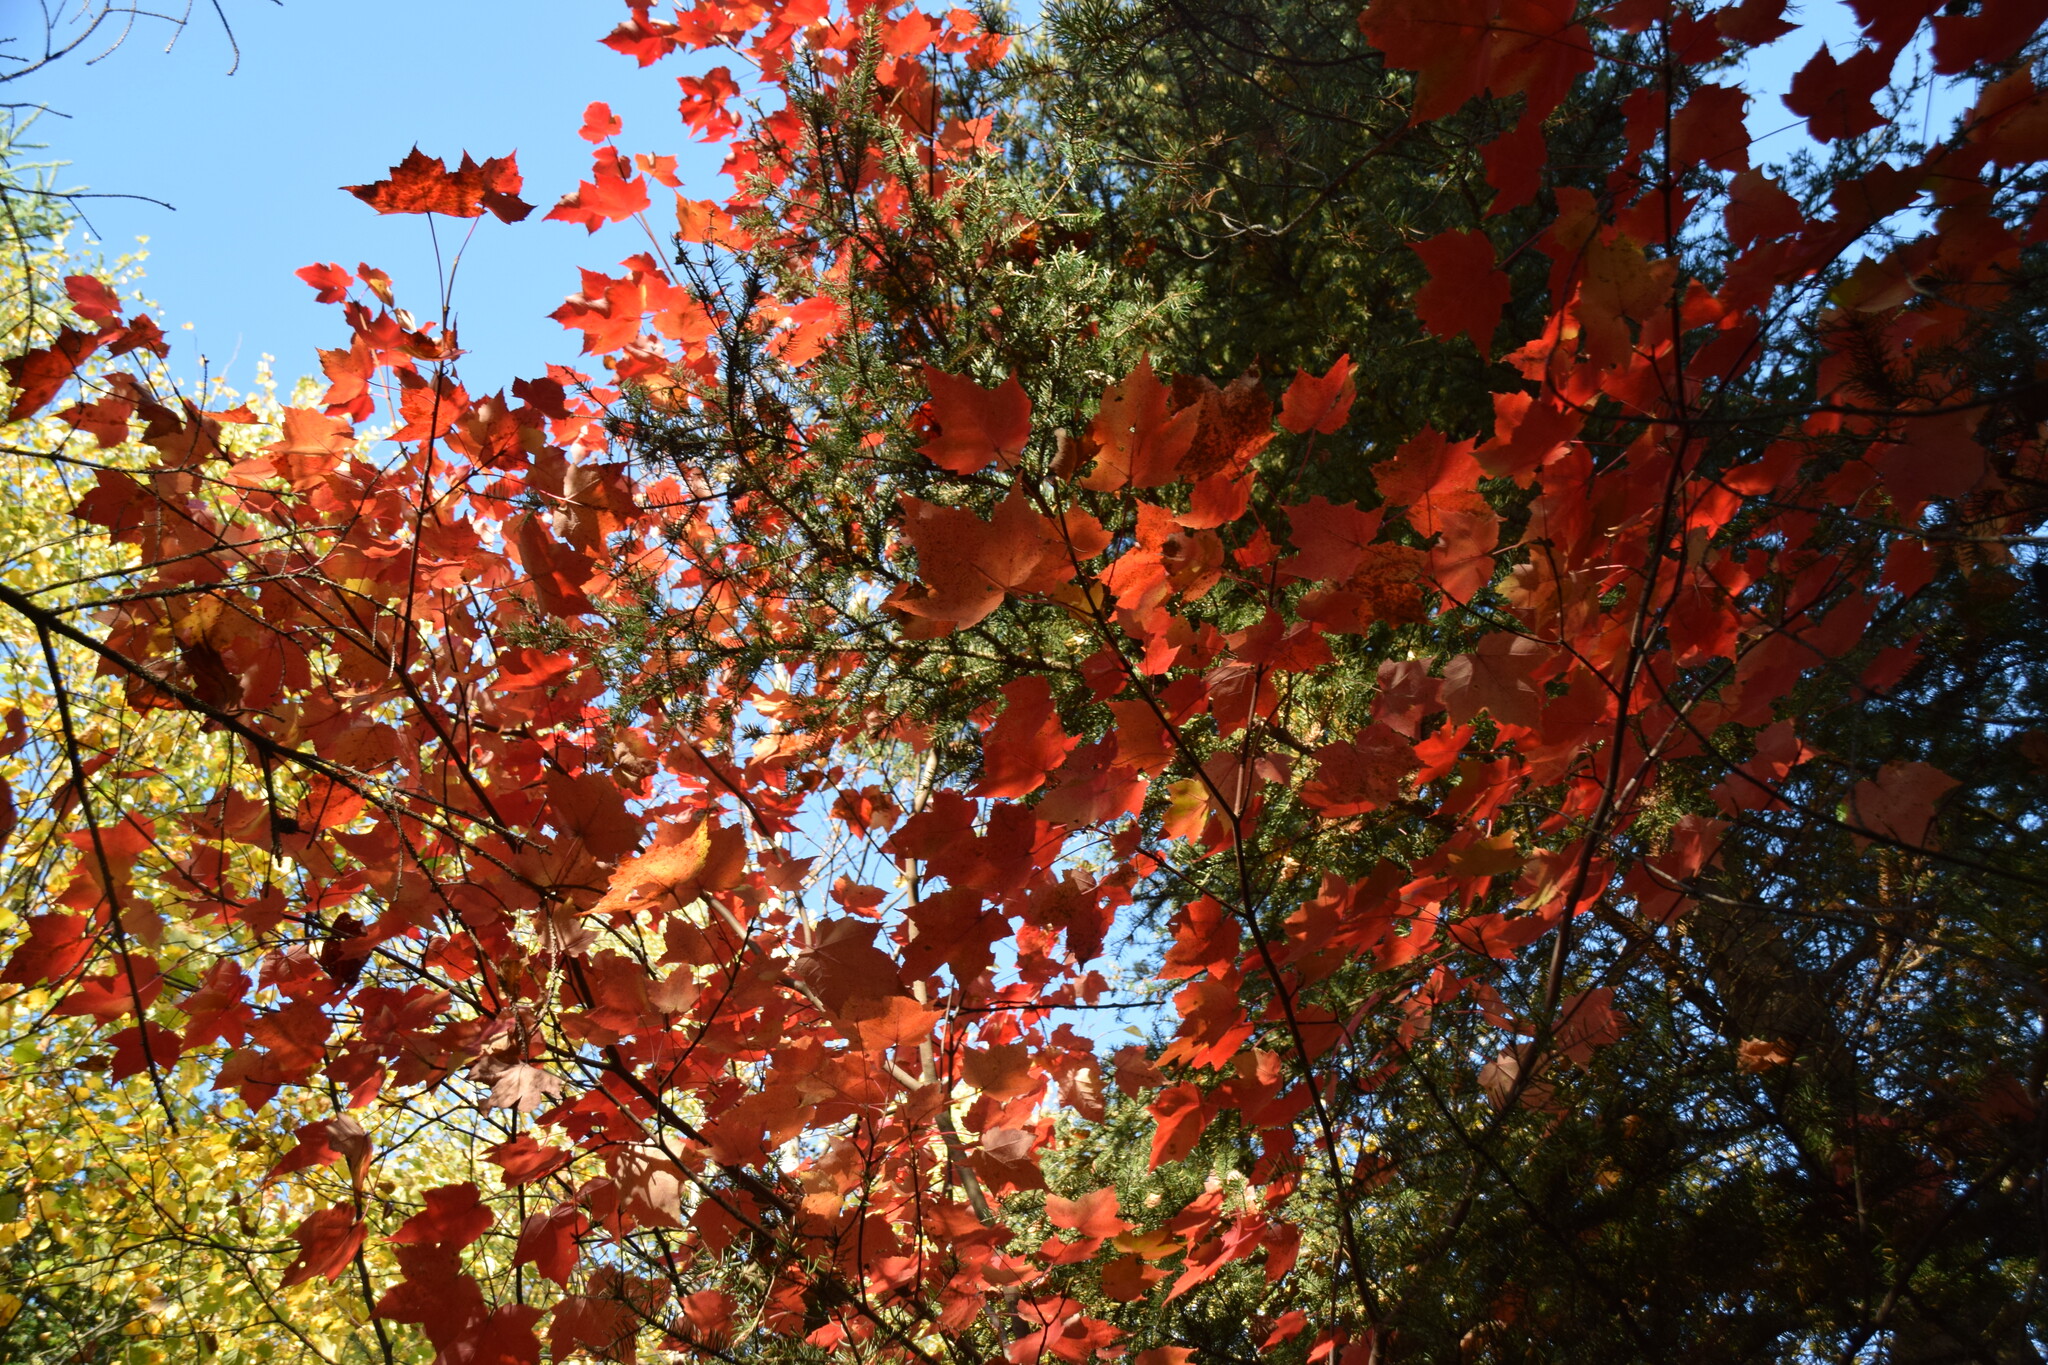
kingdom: Plantae
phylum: Tracheophyta
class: Magnoliopsida
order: Sapindales
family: Sapindaceae
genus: Acer
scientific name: Acer rubrum
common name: Red maple
